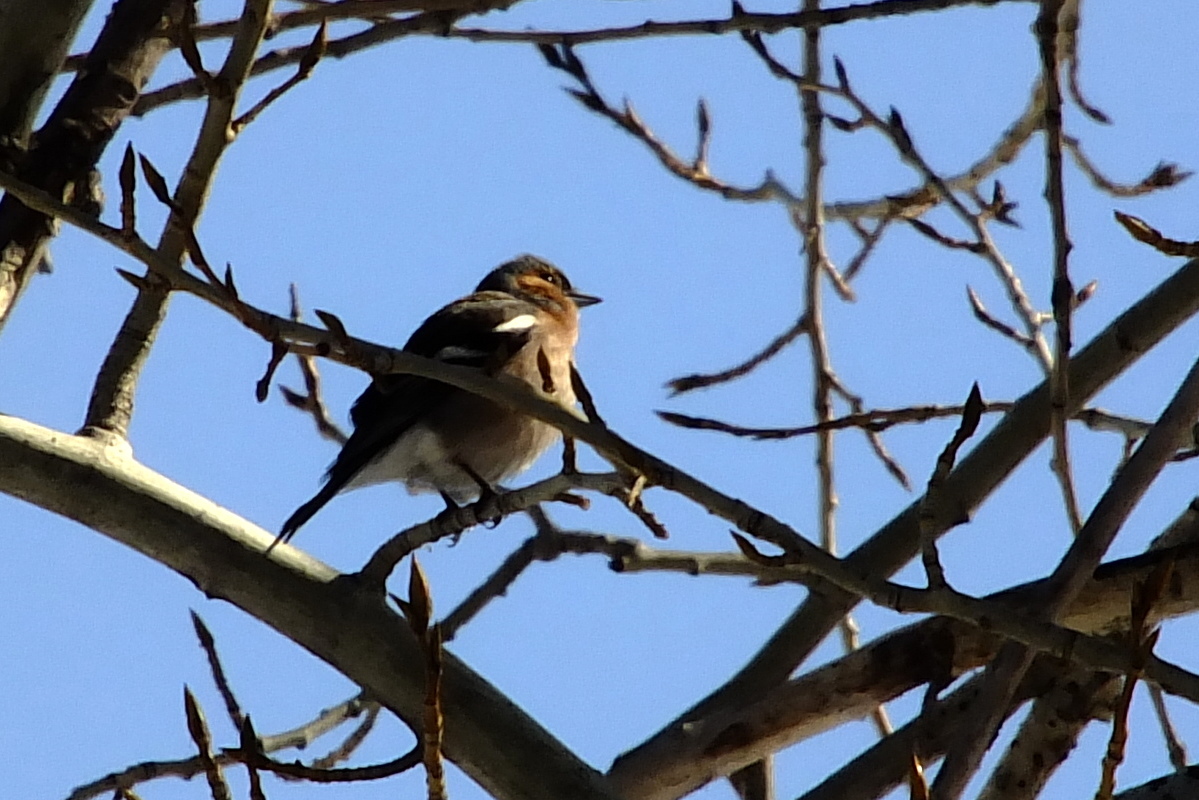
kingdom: Animalia
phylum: Chordata
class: Aves
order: Passeriformes
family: Fringillidae
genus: Fringilla
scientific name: Fringilla coelebs
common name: Common chaffinch
